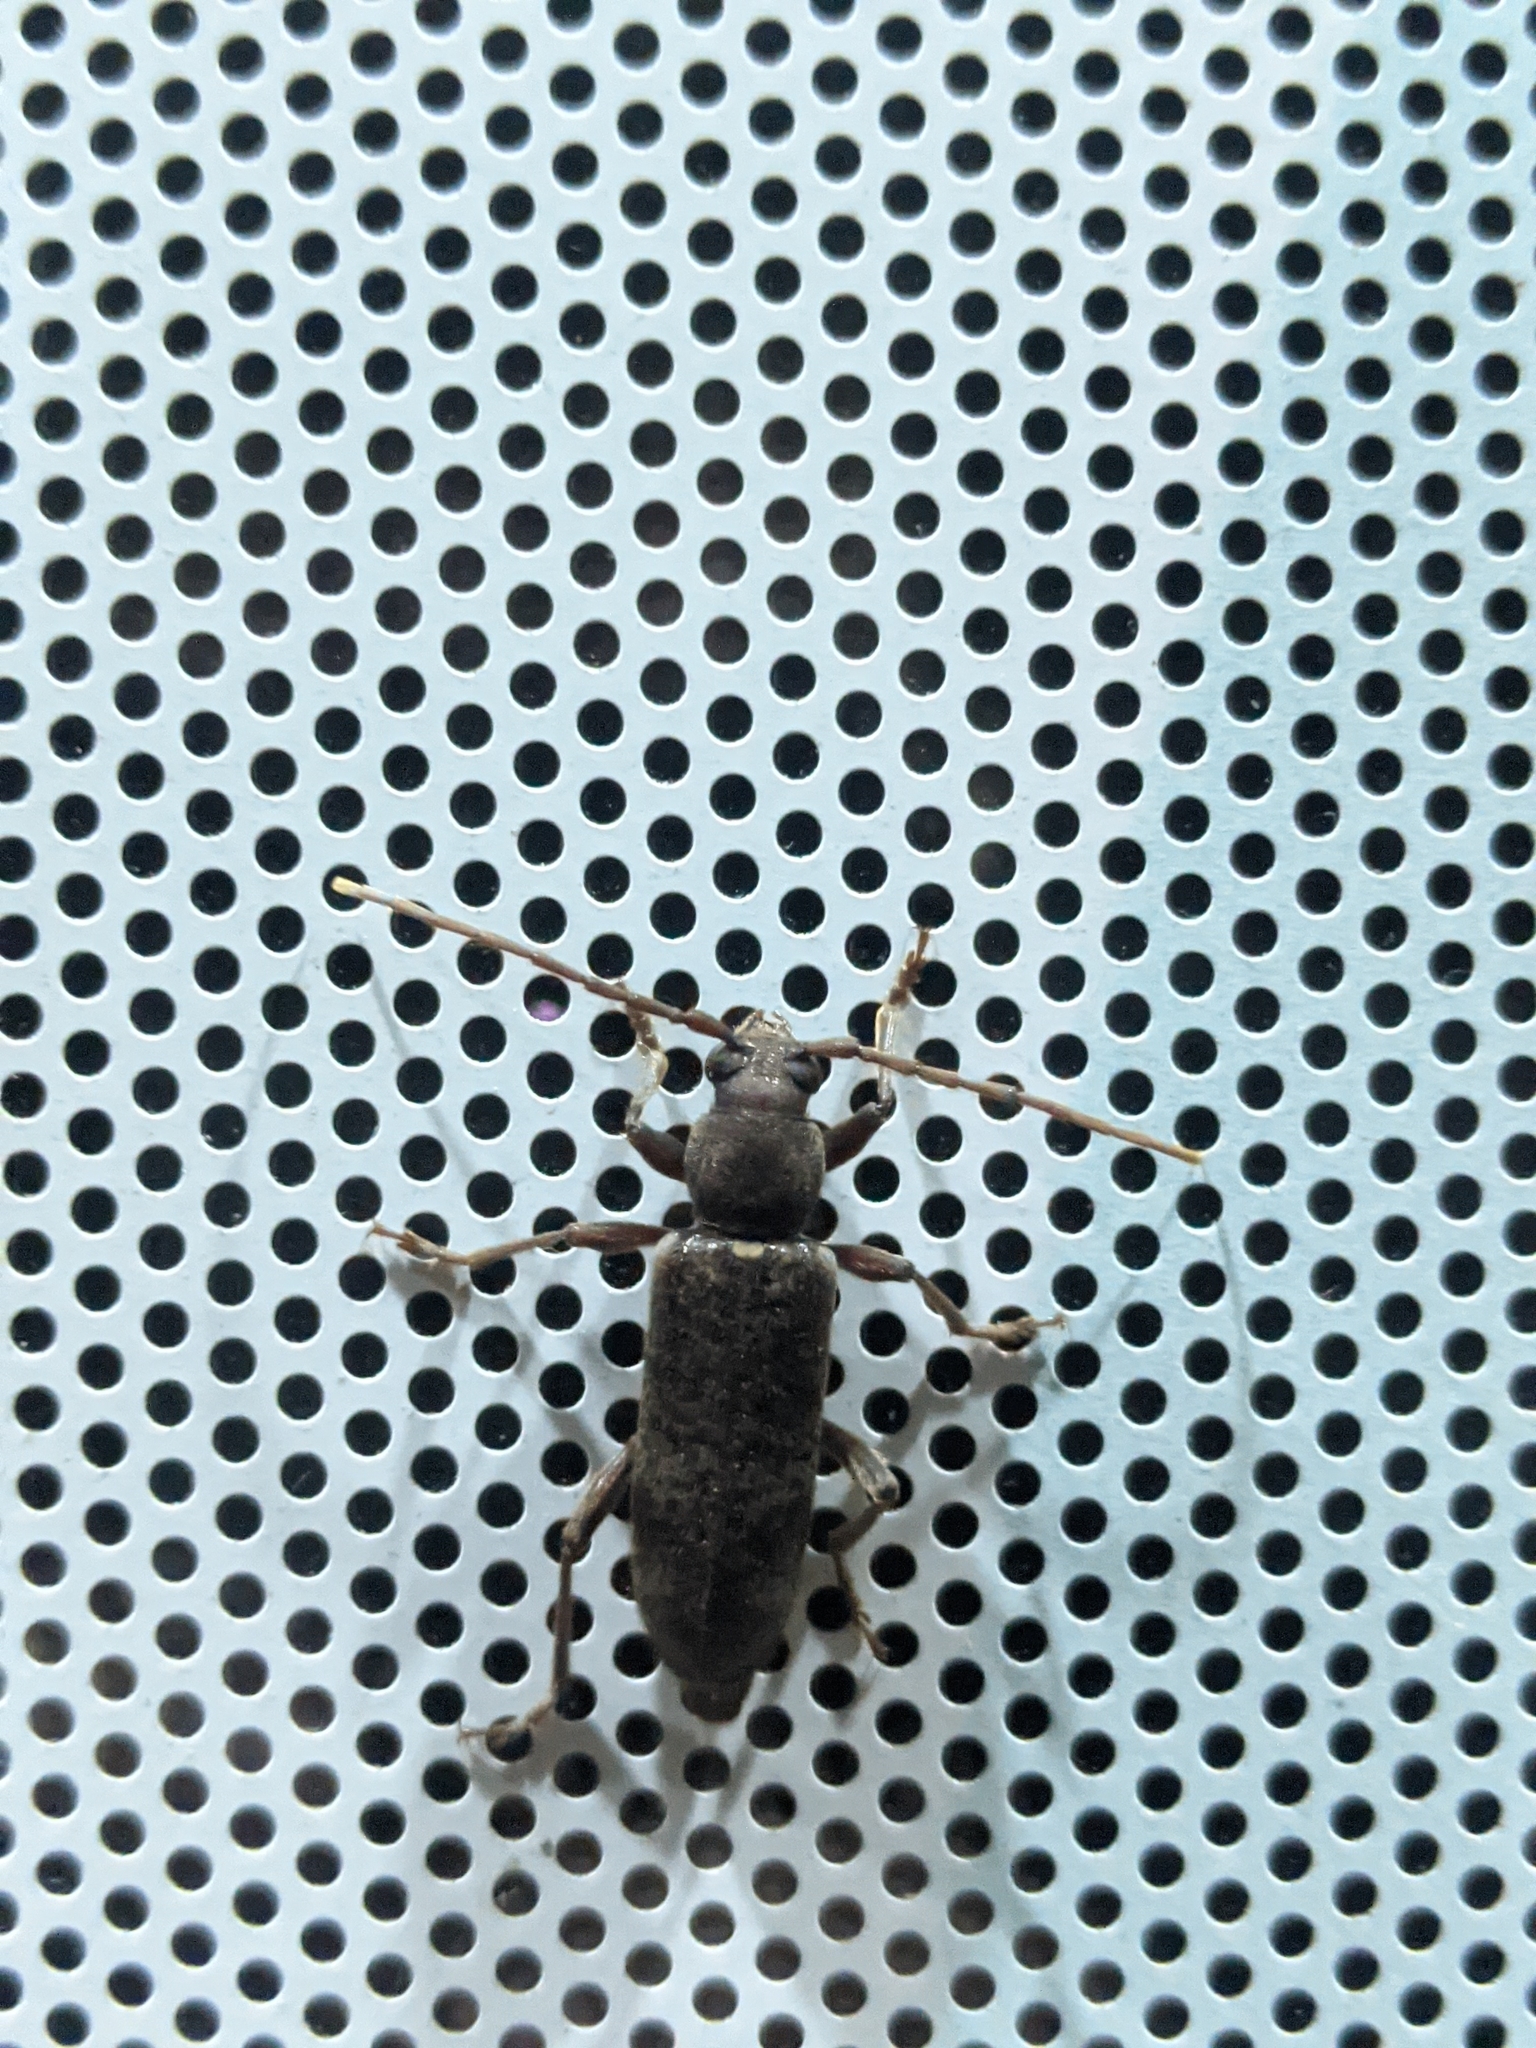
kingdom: Animalia
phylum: Arthropoda
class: Insecta
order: Coleoptera
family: Cerambycidae
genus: Trichoferus
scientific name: Trichoferus campestris
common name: Velvet long horned beetle
